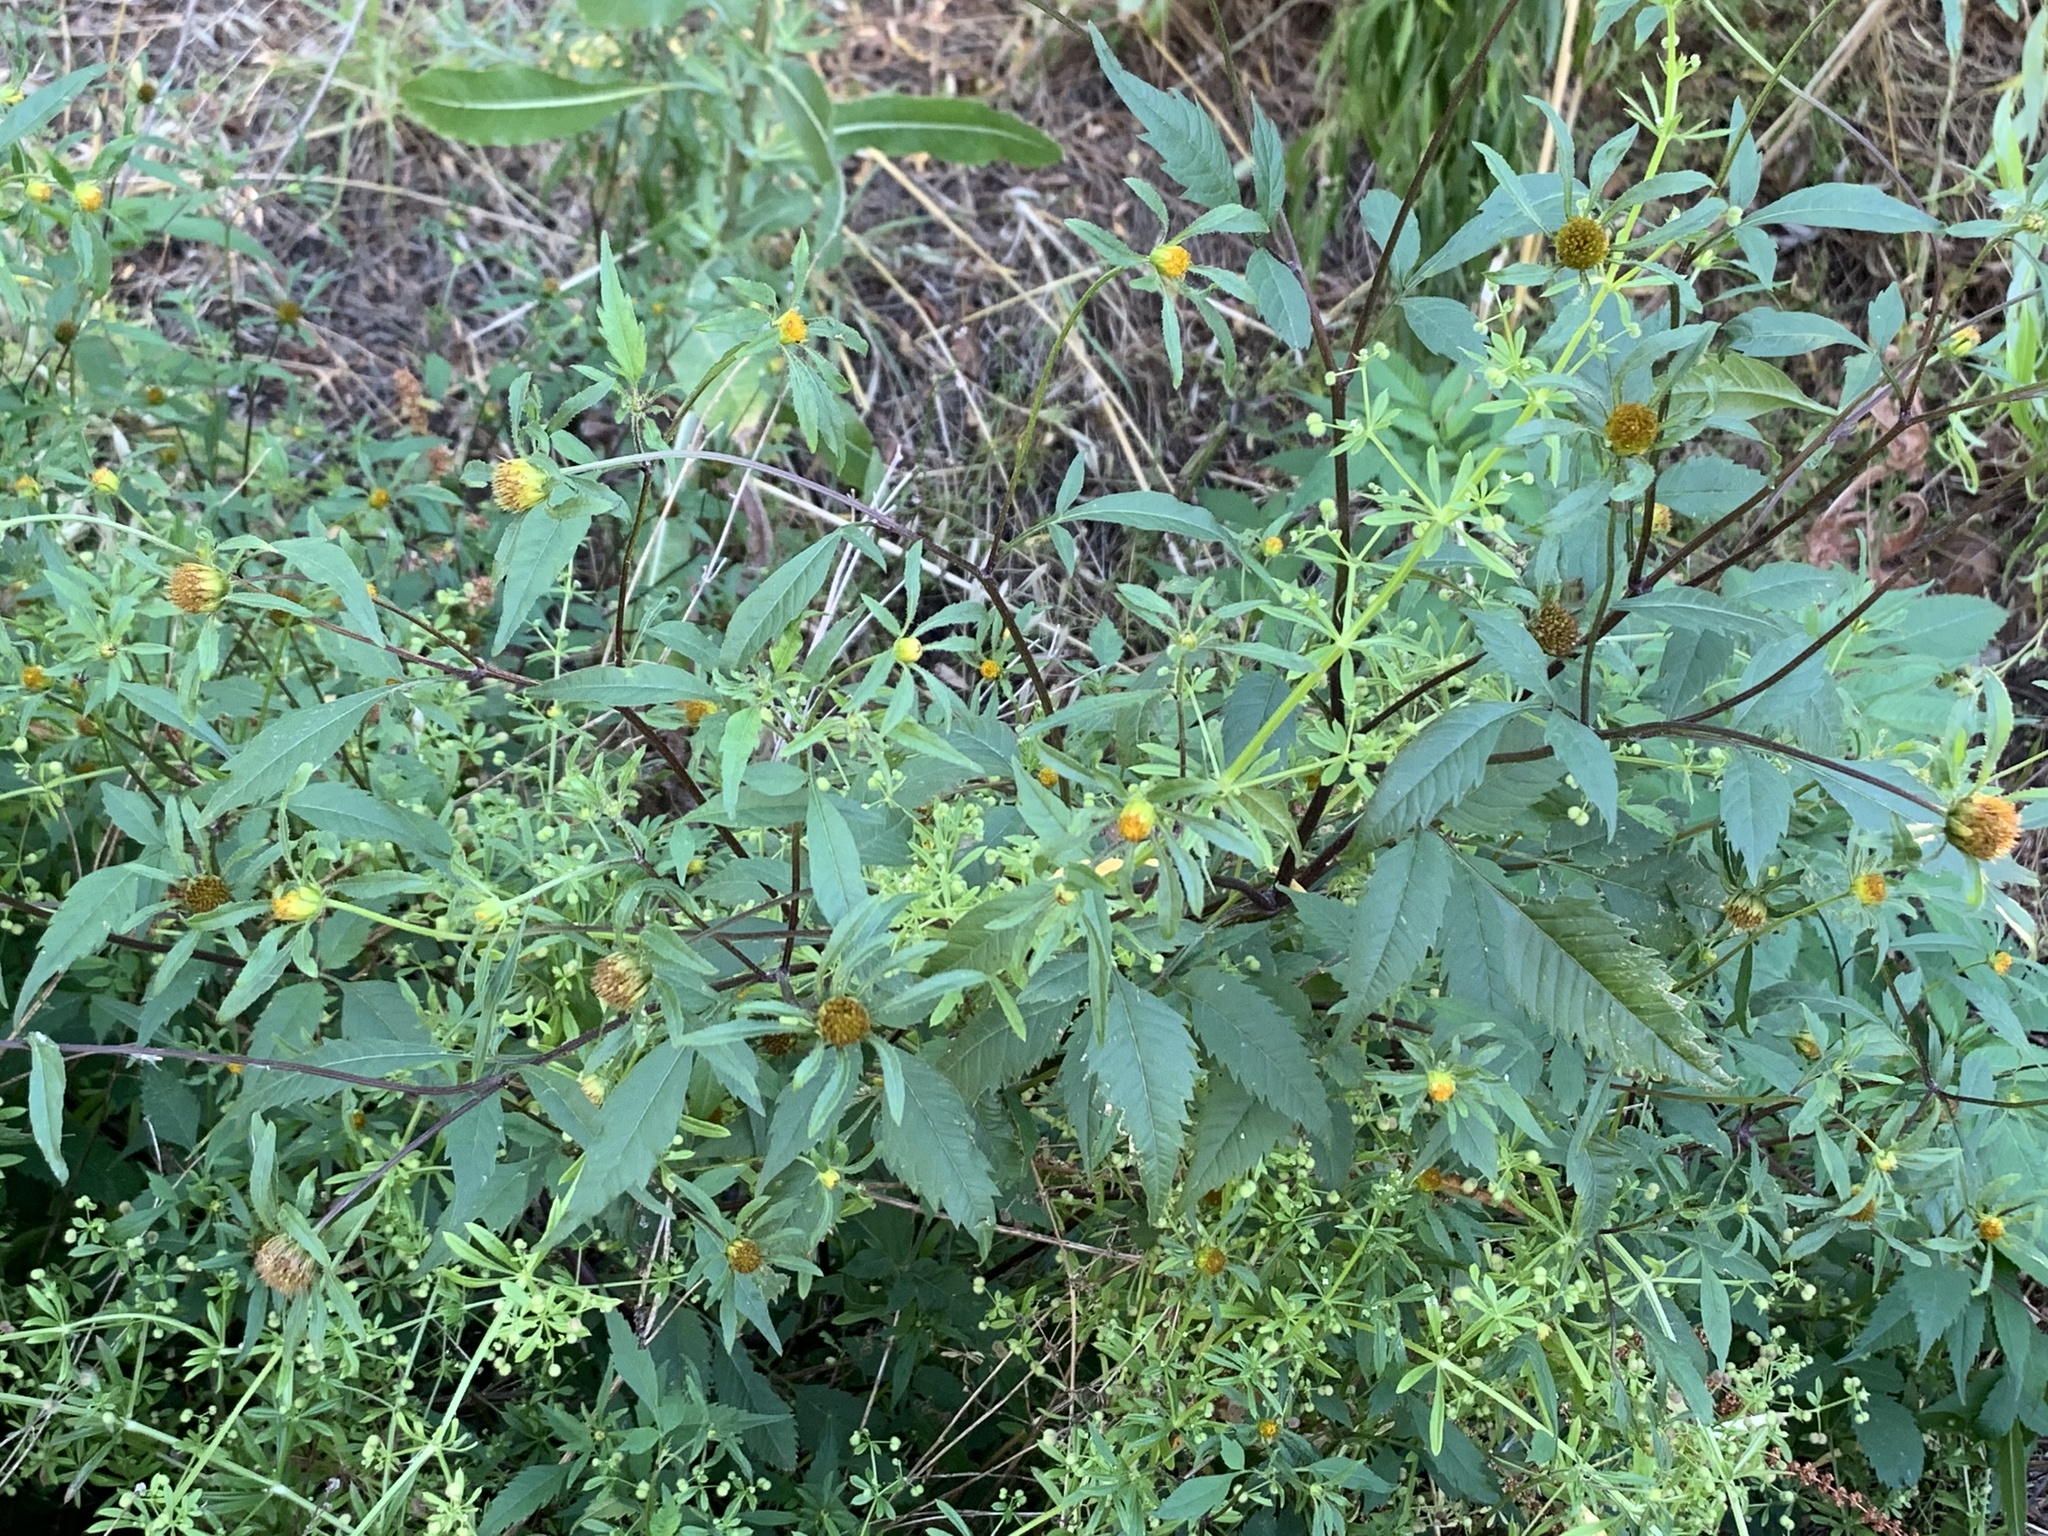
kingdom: Plantae
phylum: Tracheophyta
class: Magnoliopsida
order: Asterales
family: Asteraceae
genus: Bidens
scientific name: Bidens frondosa
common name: Beggarticks
